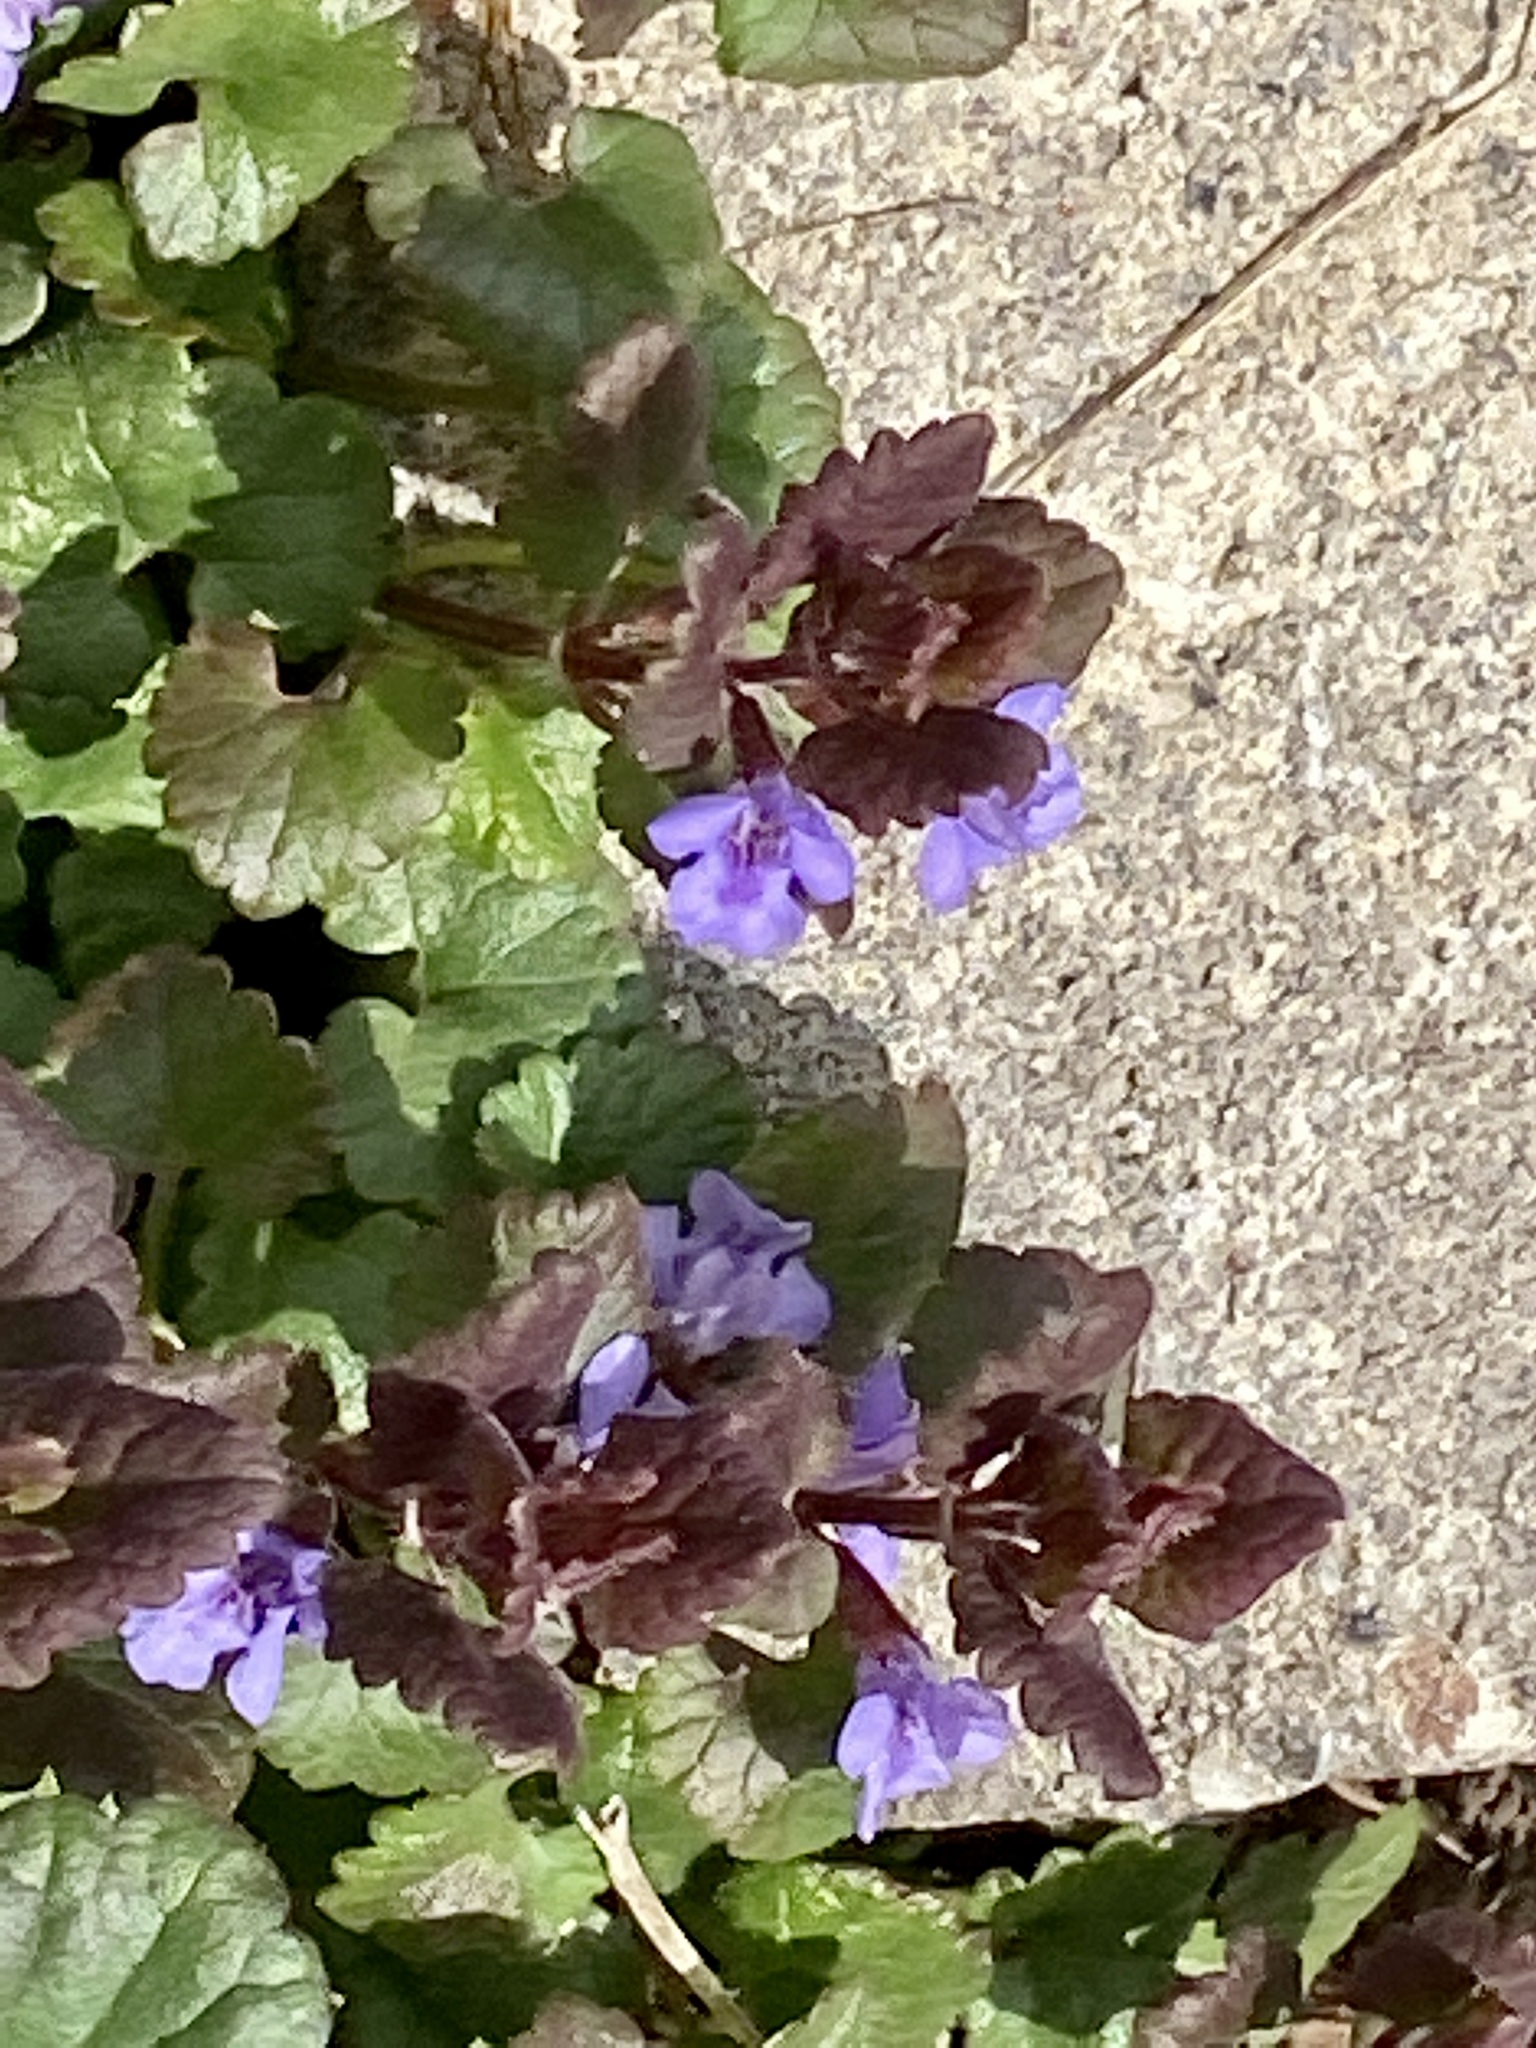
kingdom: Plantae
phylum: Tracheophyta
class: Magnoliopsida
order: Lamiales
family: Lamiaceae
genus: Glechoma
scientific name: Glechoma hederacea
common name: Ground ivy
